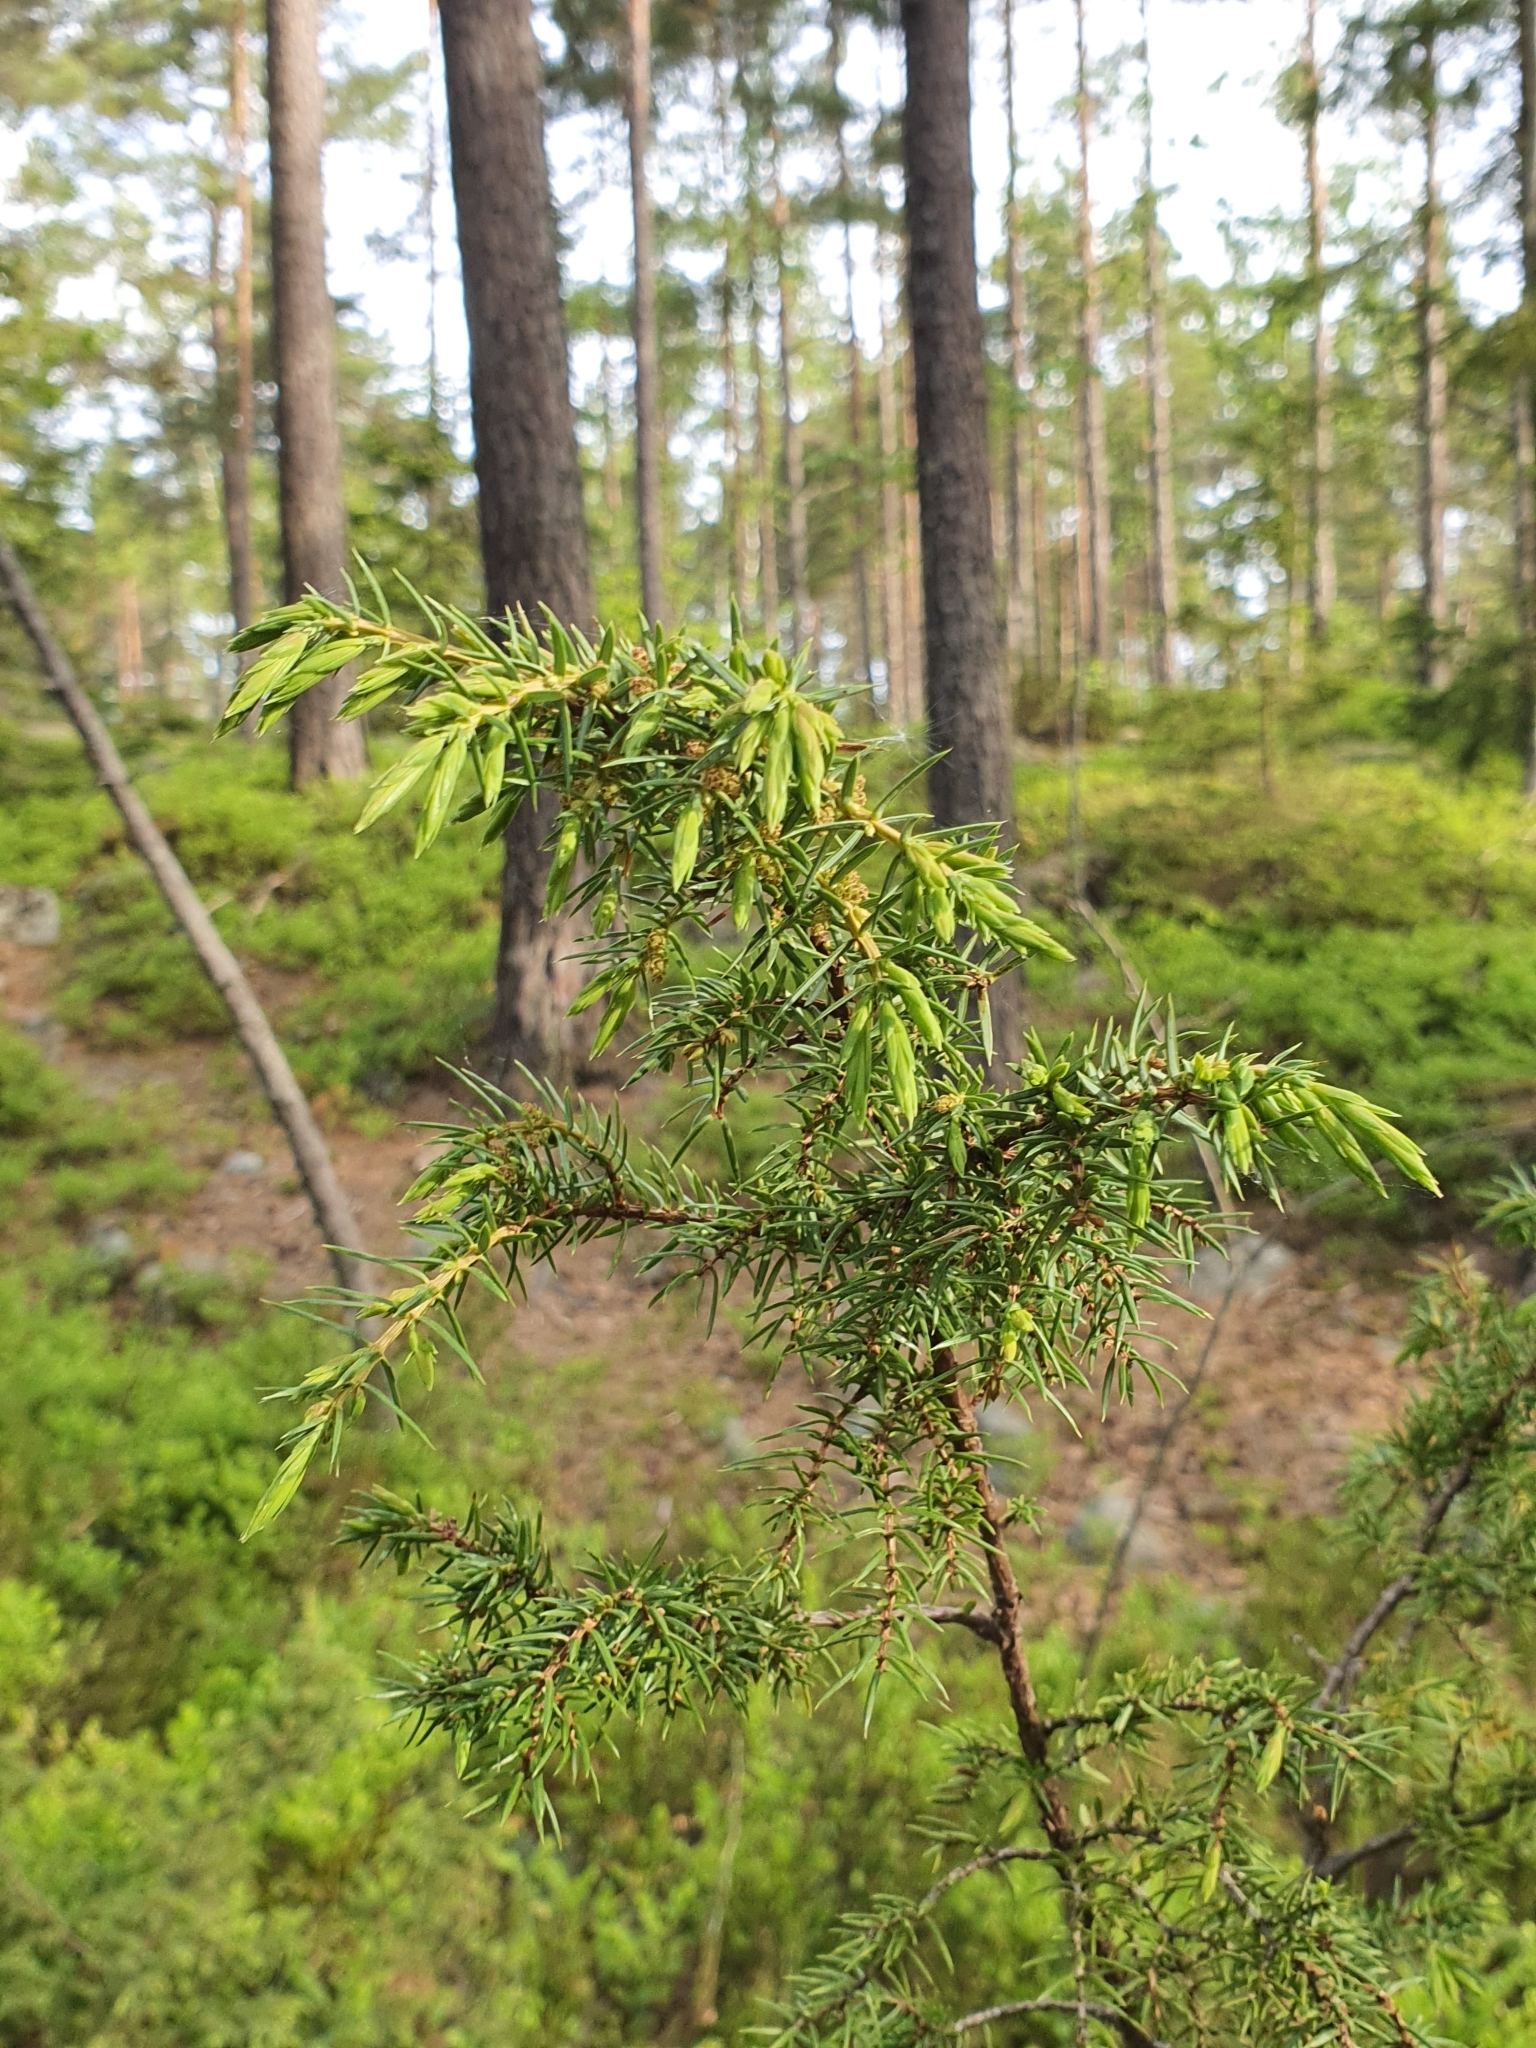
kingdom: Plantae
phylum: Tracheophyta
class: Pinopsida
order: Pinales
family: Cupressaceae
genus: Juniperus
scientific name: Juniperus communis
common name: Common juniper
